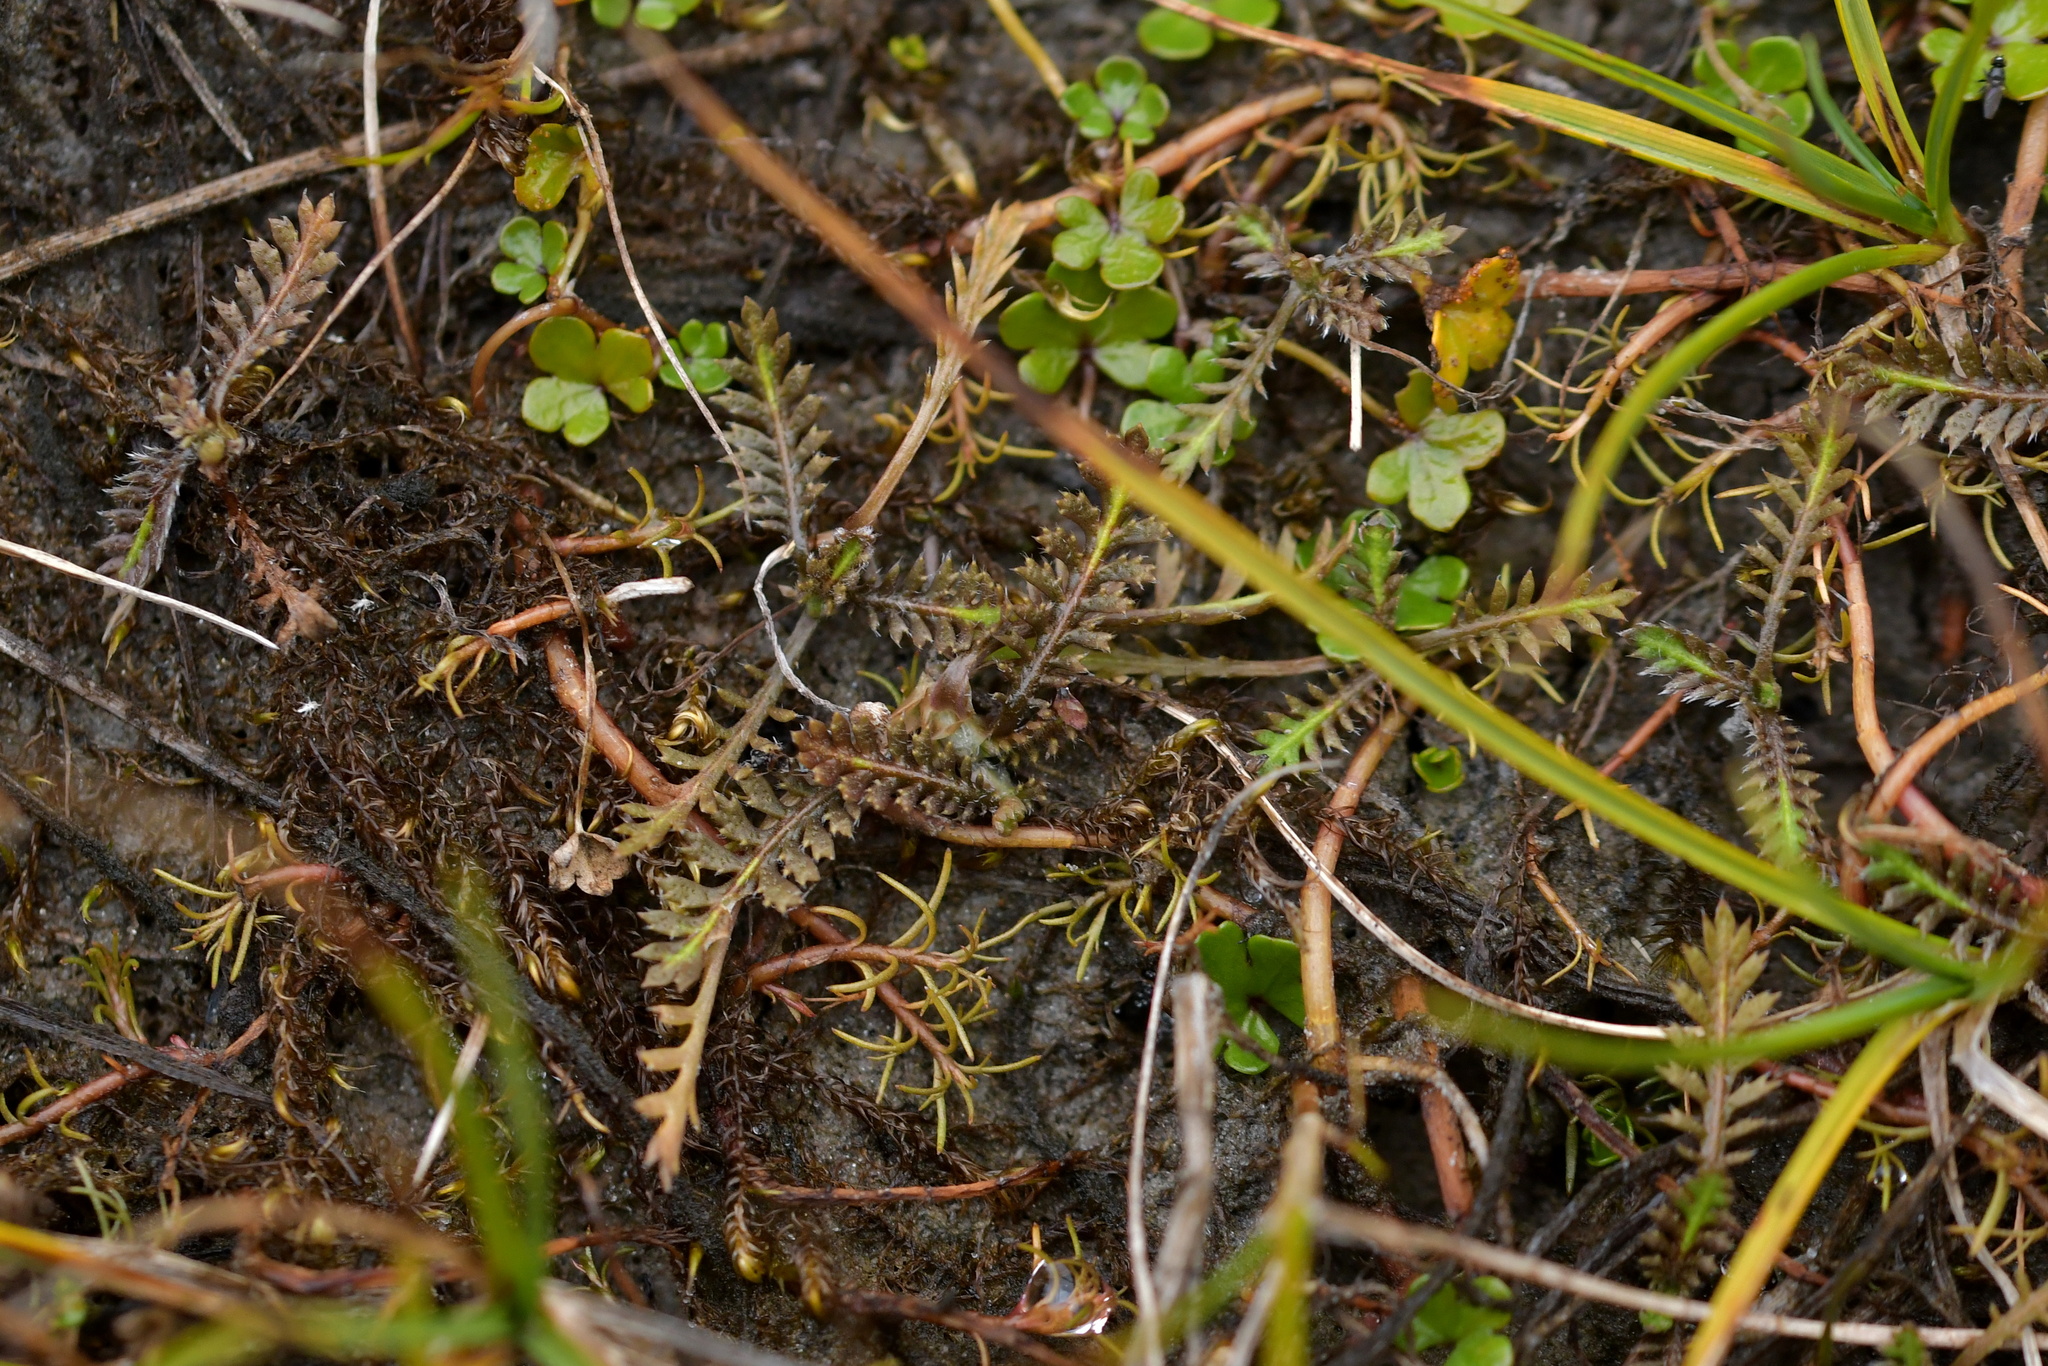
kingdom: Plantae
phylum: Tracheophyta
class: Magnoliopsida
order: Asterales
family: Asteraceae
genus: Leptinella
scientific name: Leptinella squalida
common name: New zealand brass-buttons
